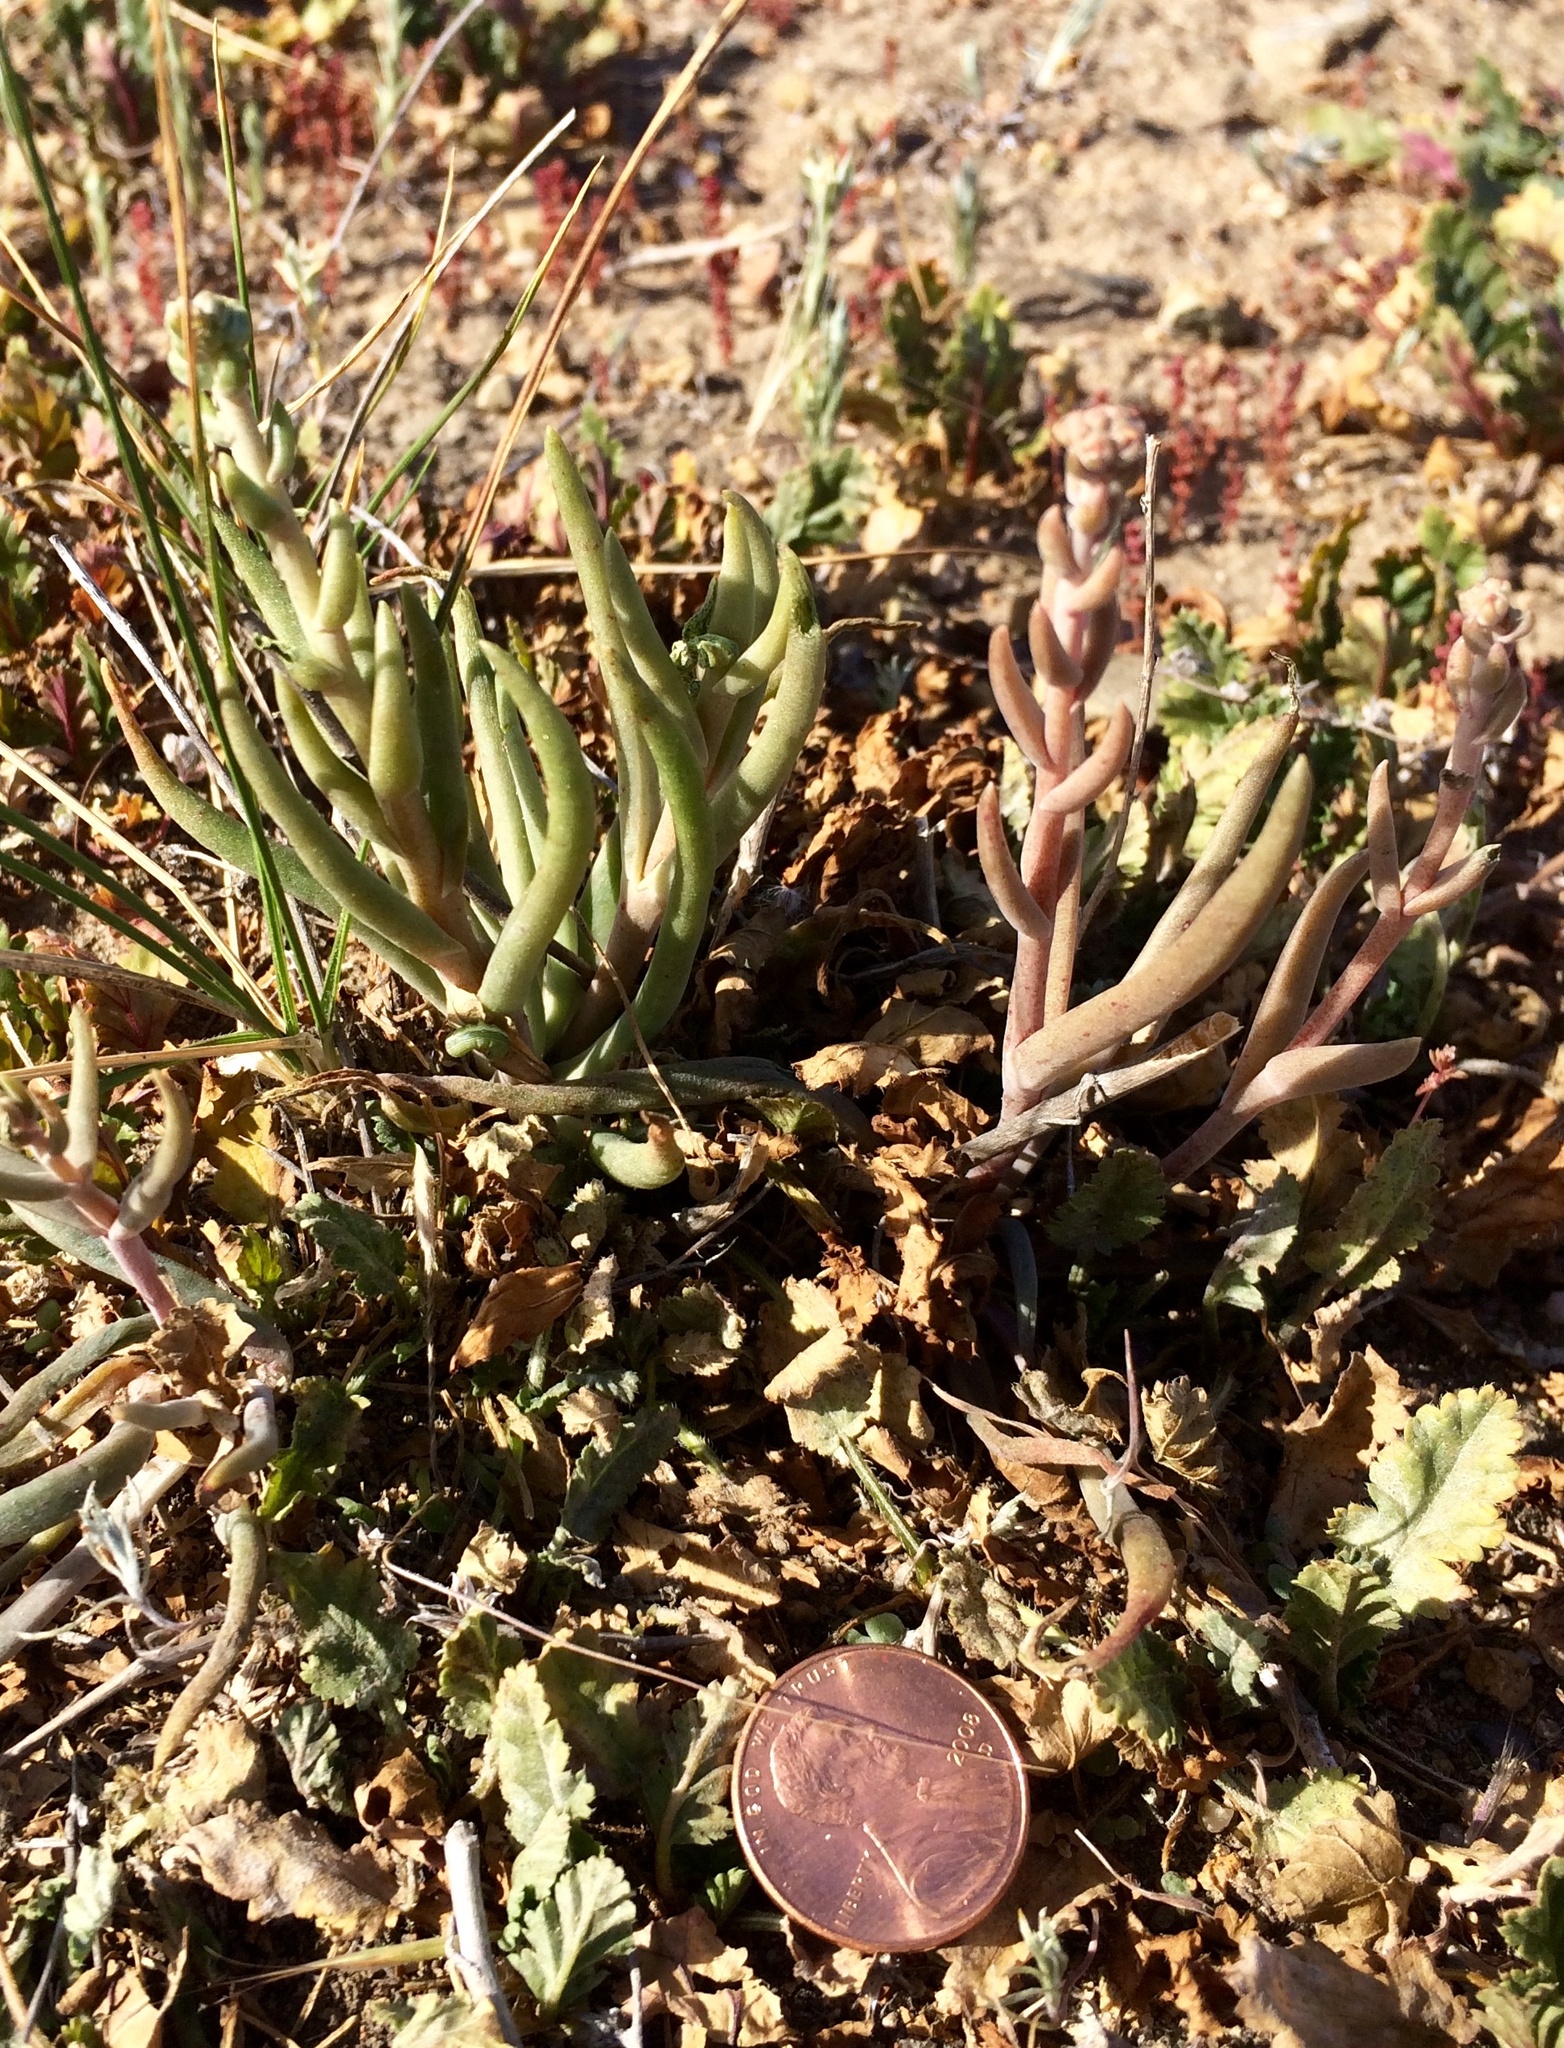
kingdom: Plantae
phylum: Tracheophyta
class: Magnoliopsida
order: Saxifragales
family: Crassulaceae
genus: Dudleya
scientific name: Dudleya multicaulis
